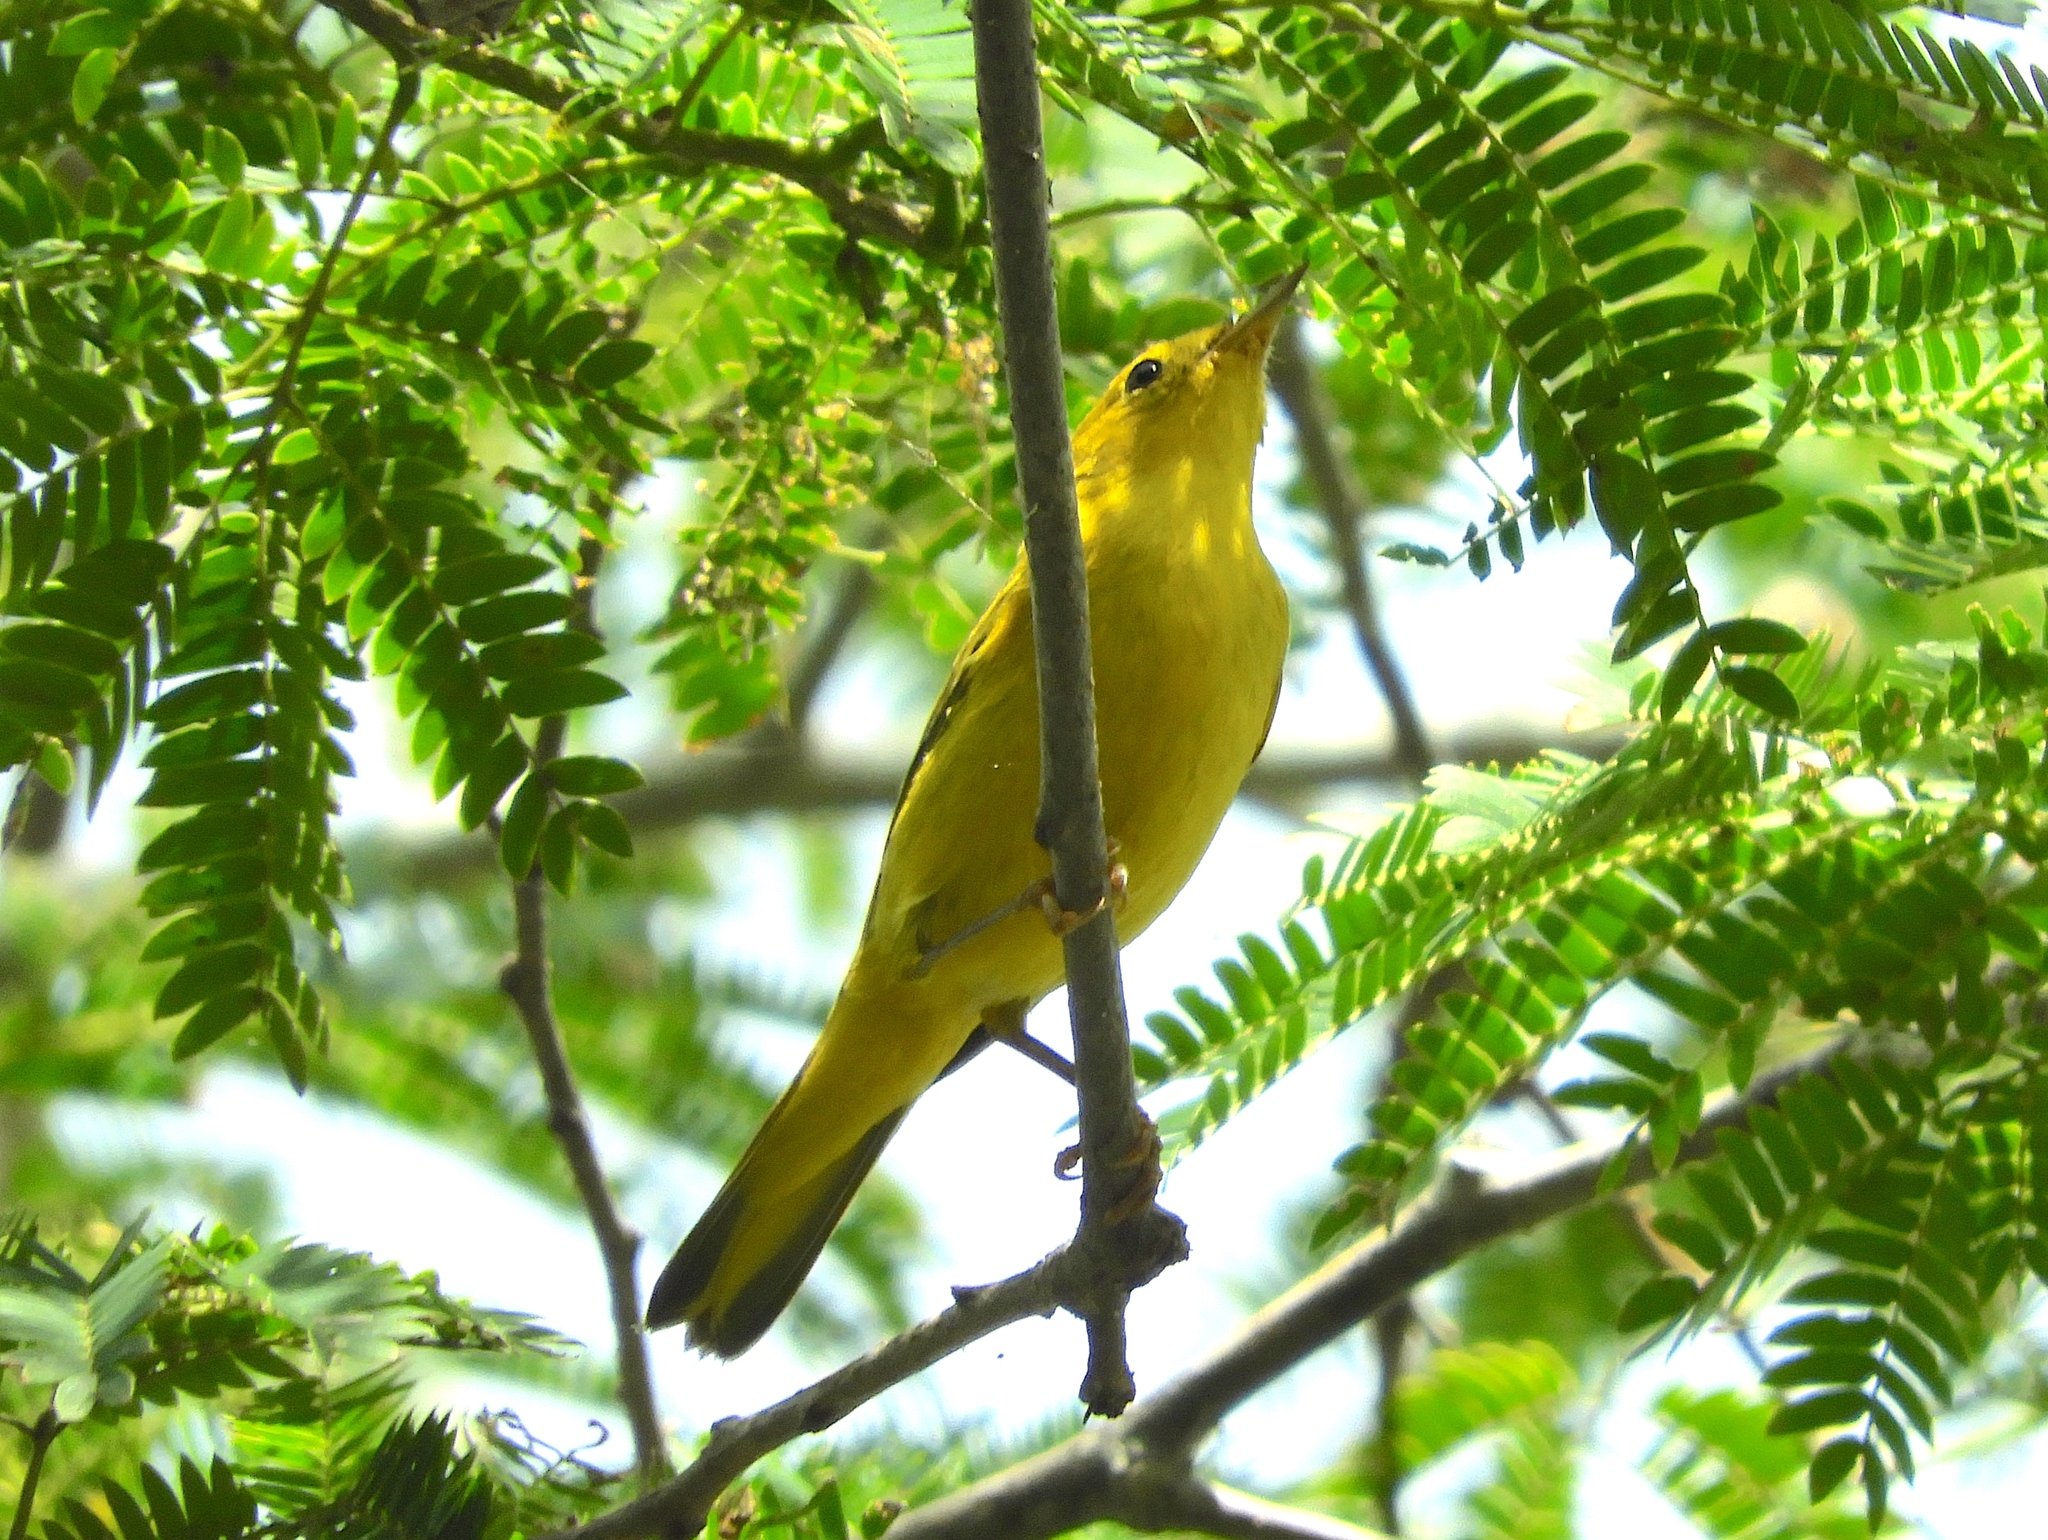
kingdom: Animalia
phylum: Chordata
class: Aves
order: Passeriformes
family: Parulidae
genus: Setophaga
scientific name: Setophaga petechia
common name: Yellow warbler
